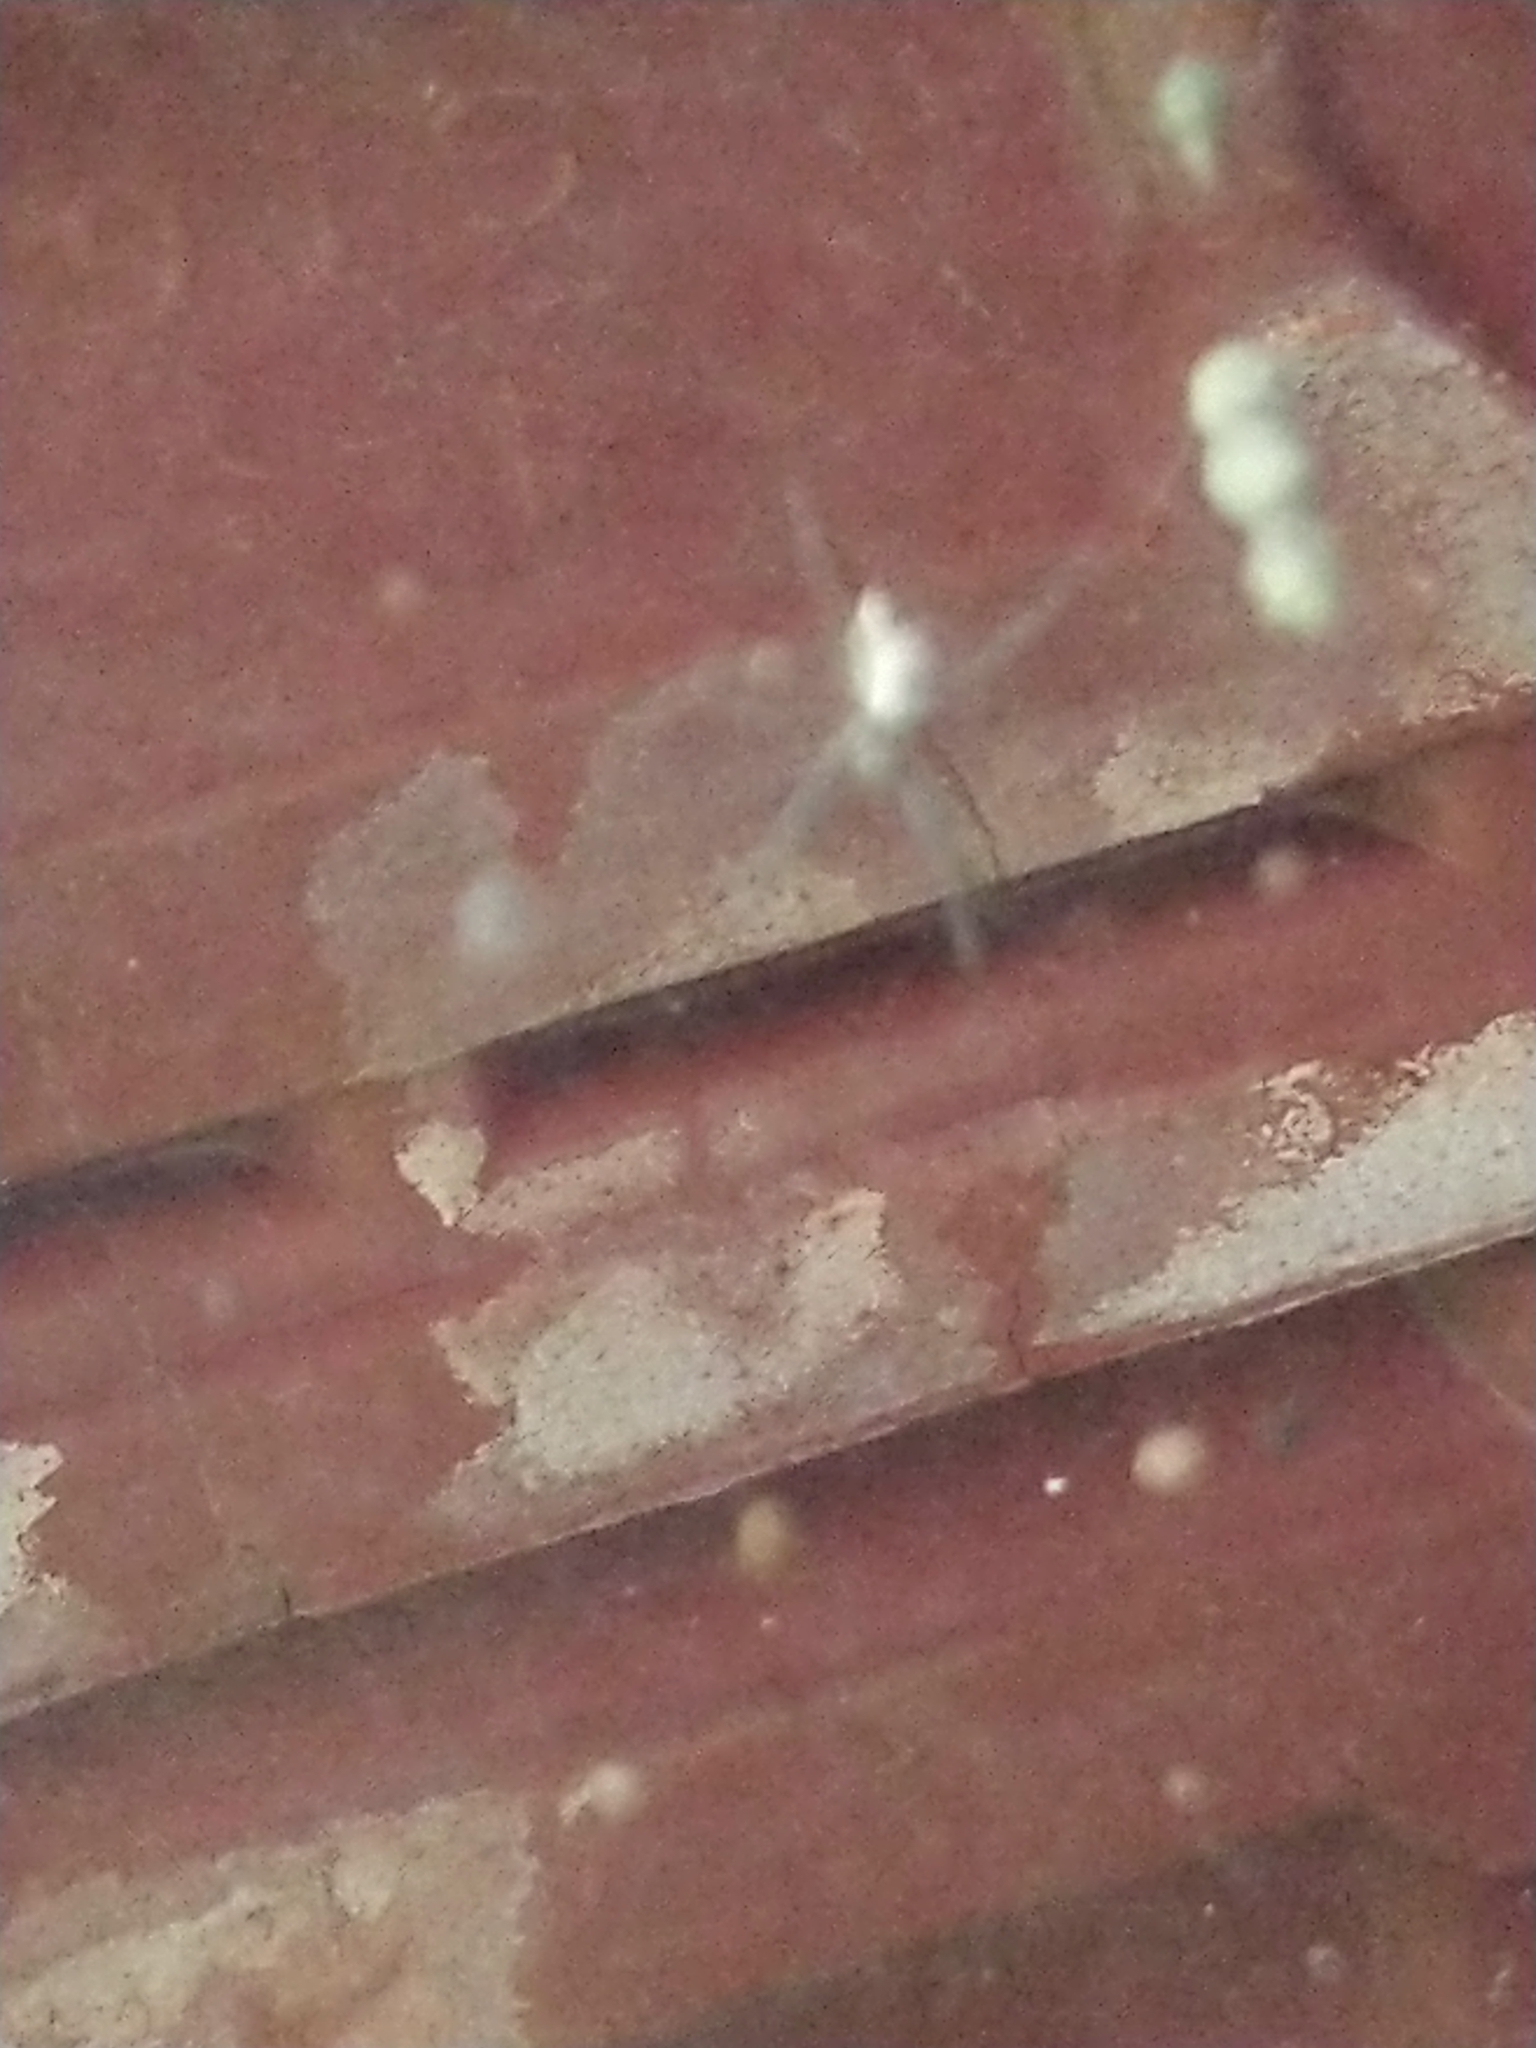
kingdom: Animalia
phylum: Arthropoda
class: Arachnida
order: Araneae
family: Araneidae
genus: Cyrtophora
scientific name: Cyrtophora cicatrosa
